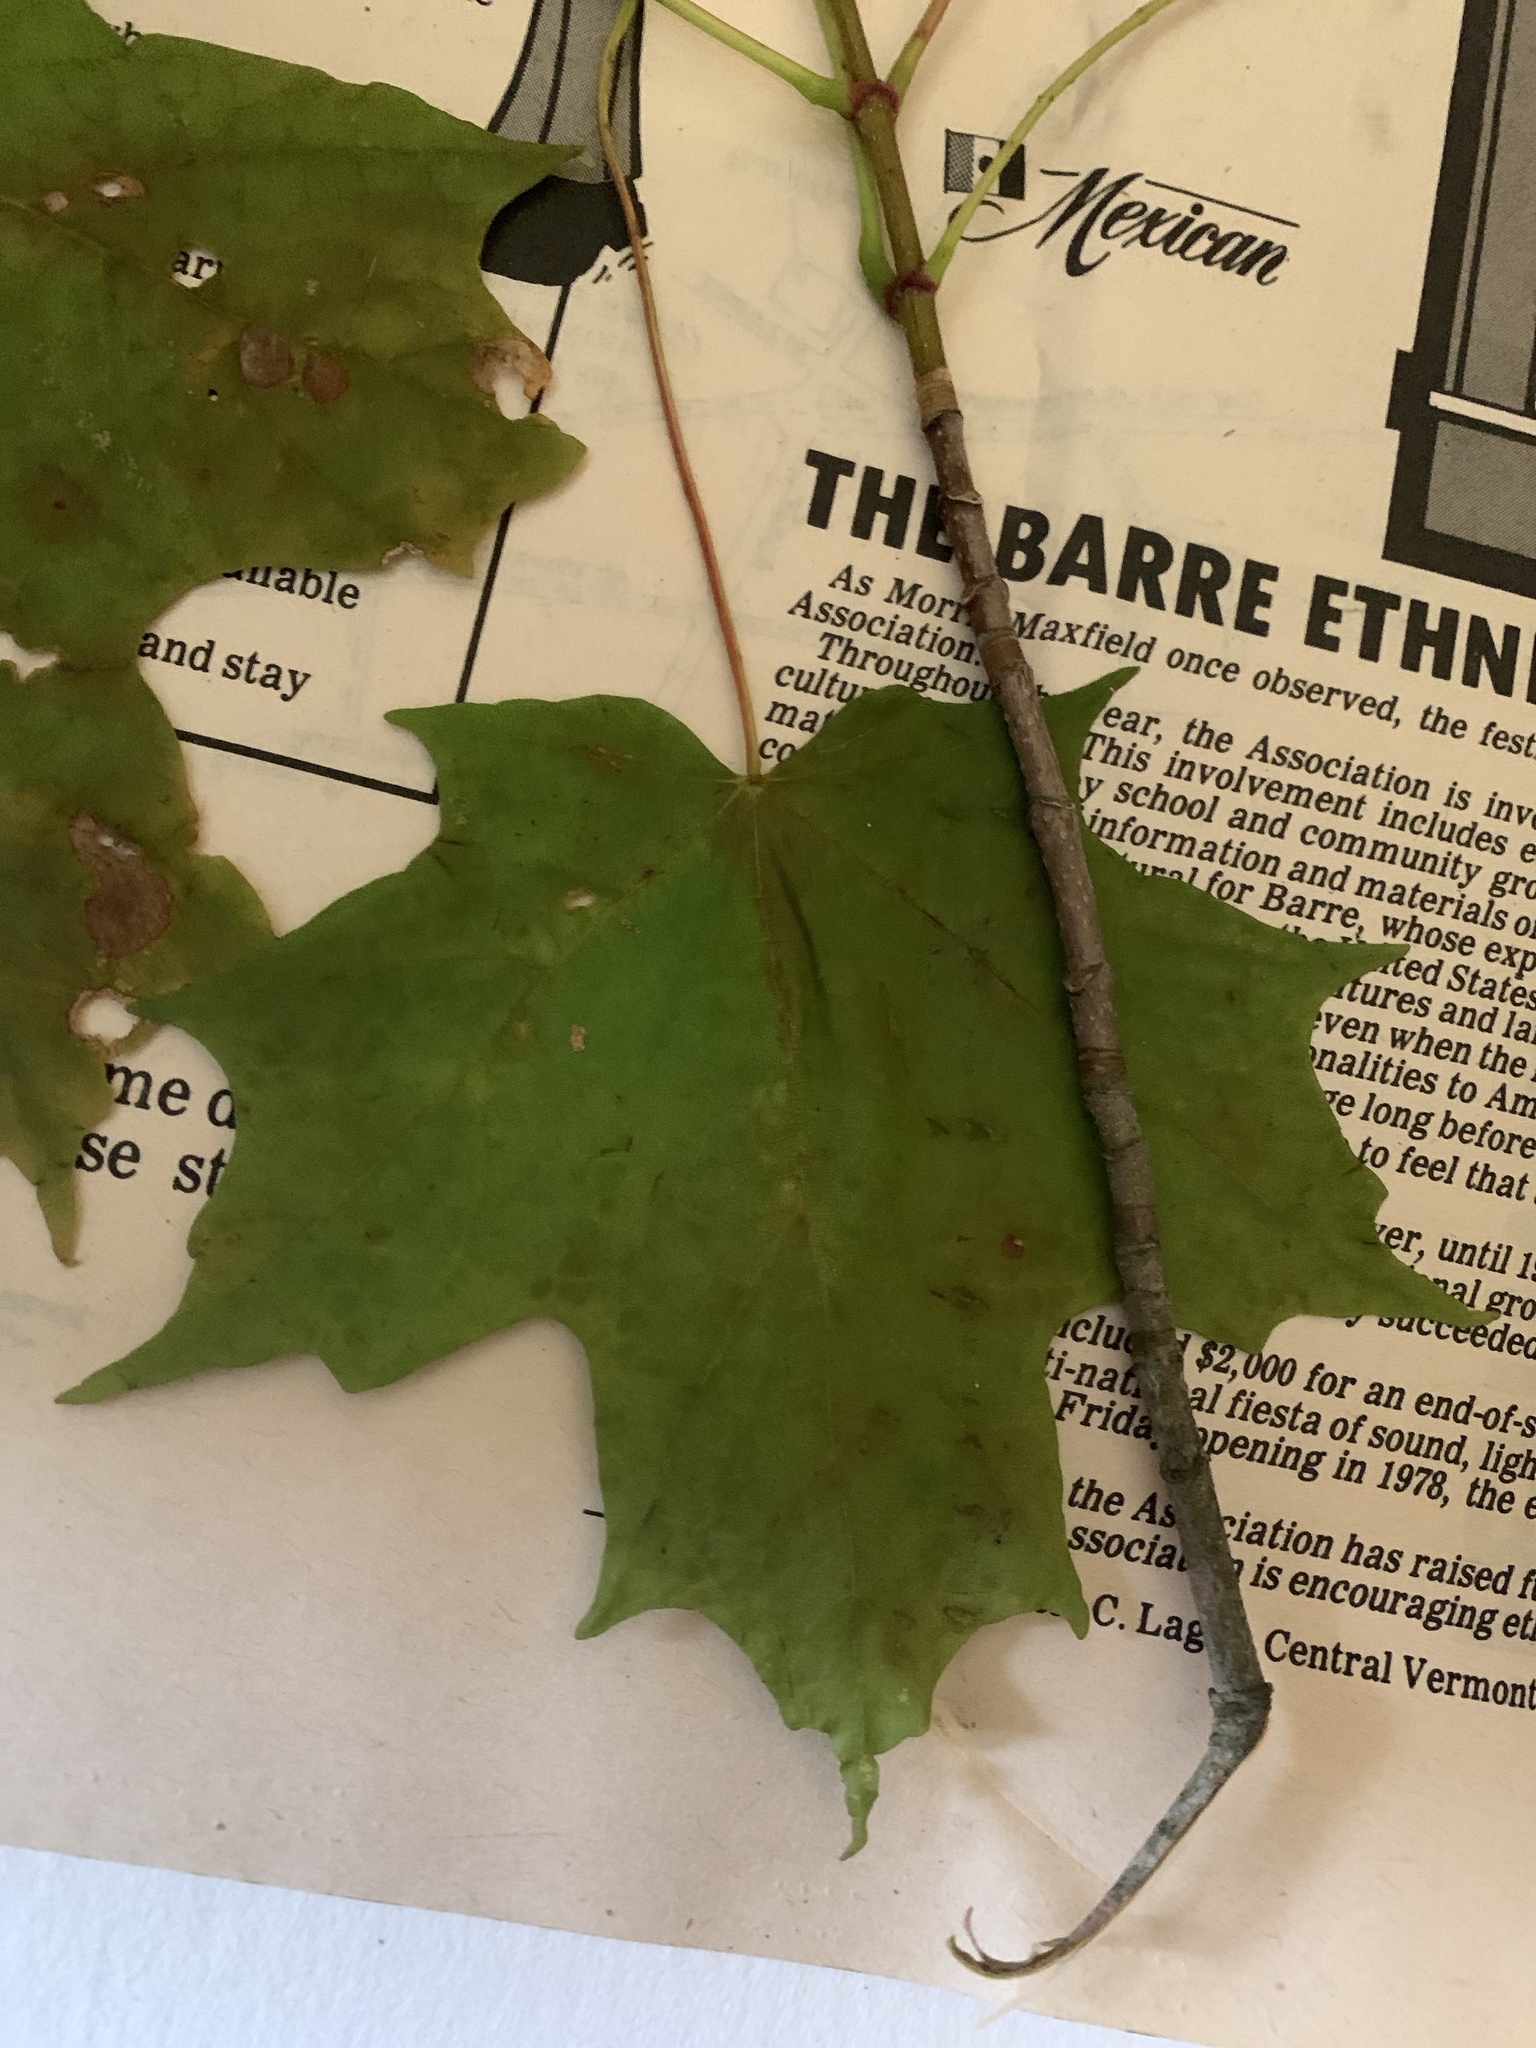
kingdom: Plantae
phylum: Tracheophyta
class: Magnoliopsida
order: Sapindales
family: Sapindaceae
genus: Acer
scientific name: Acer saccharum
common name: Sugar maple
